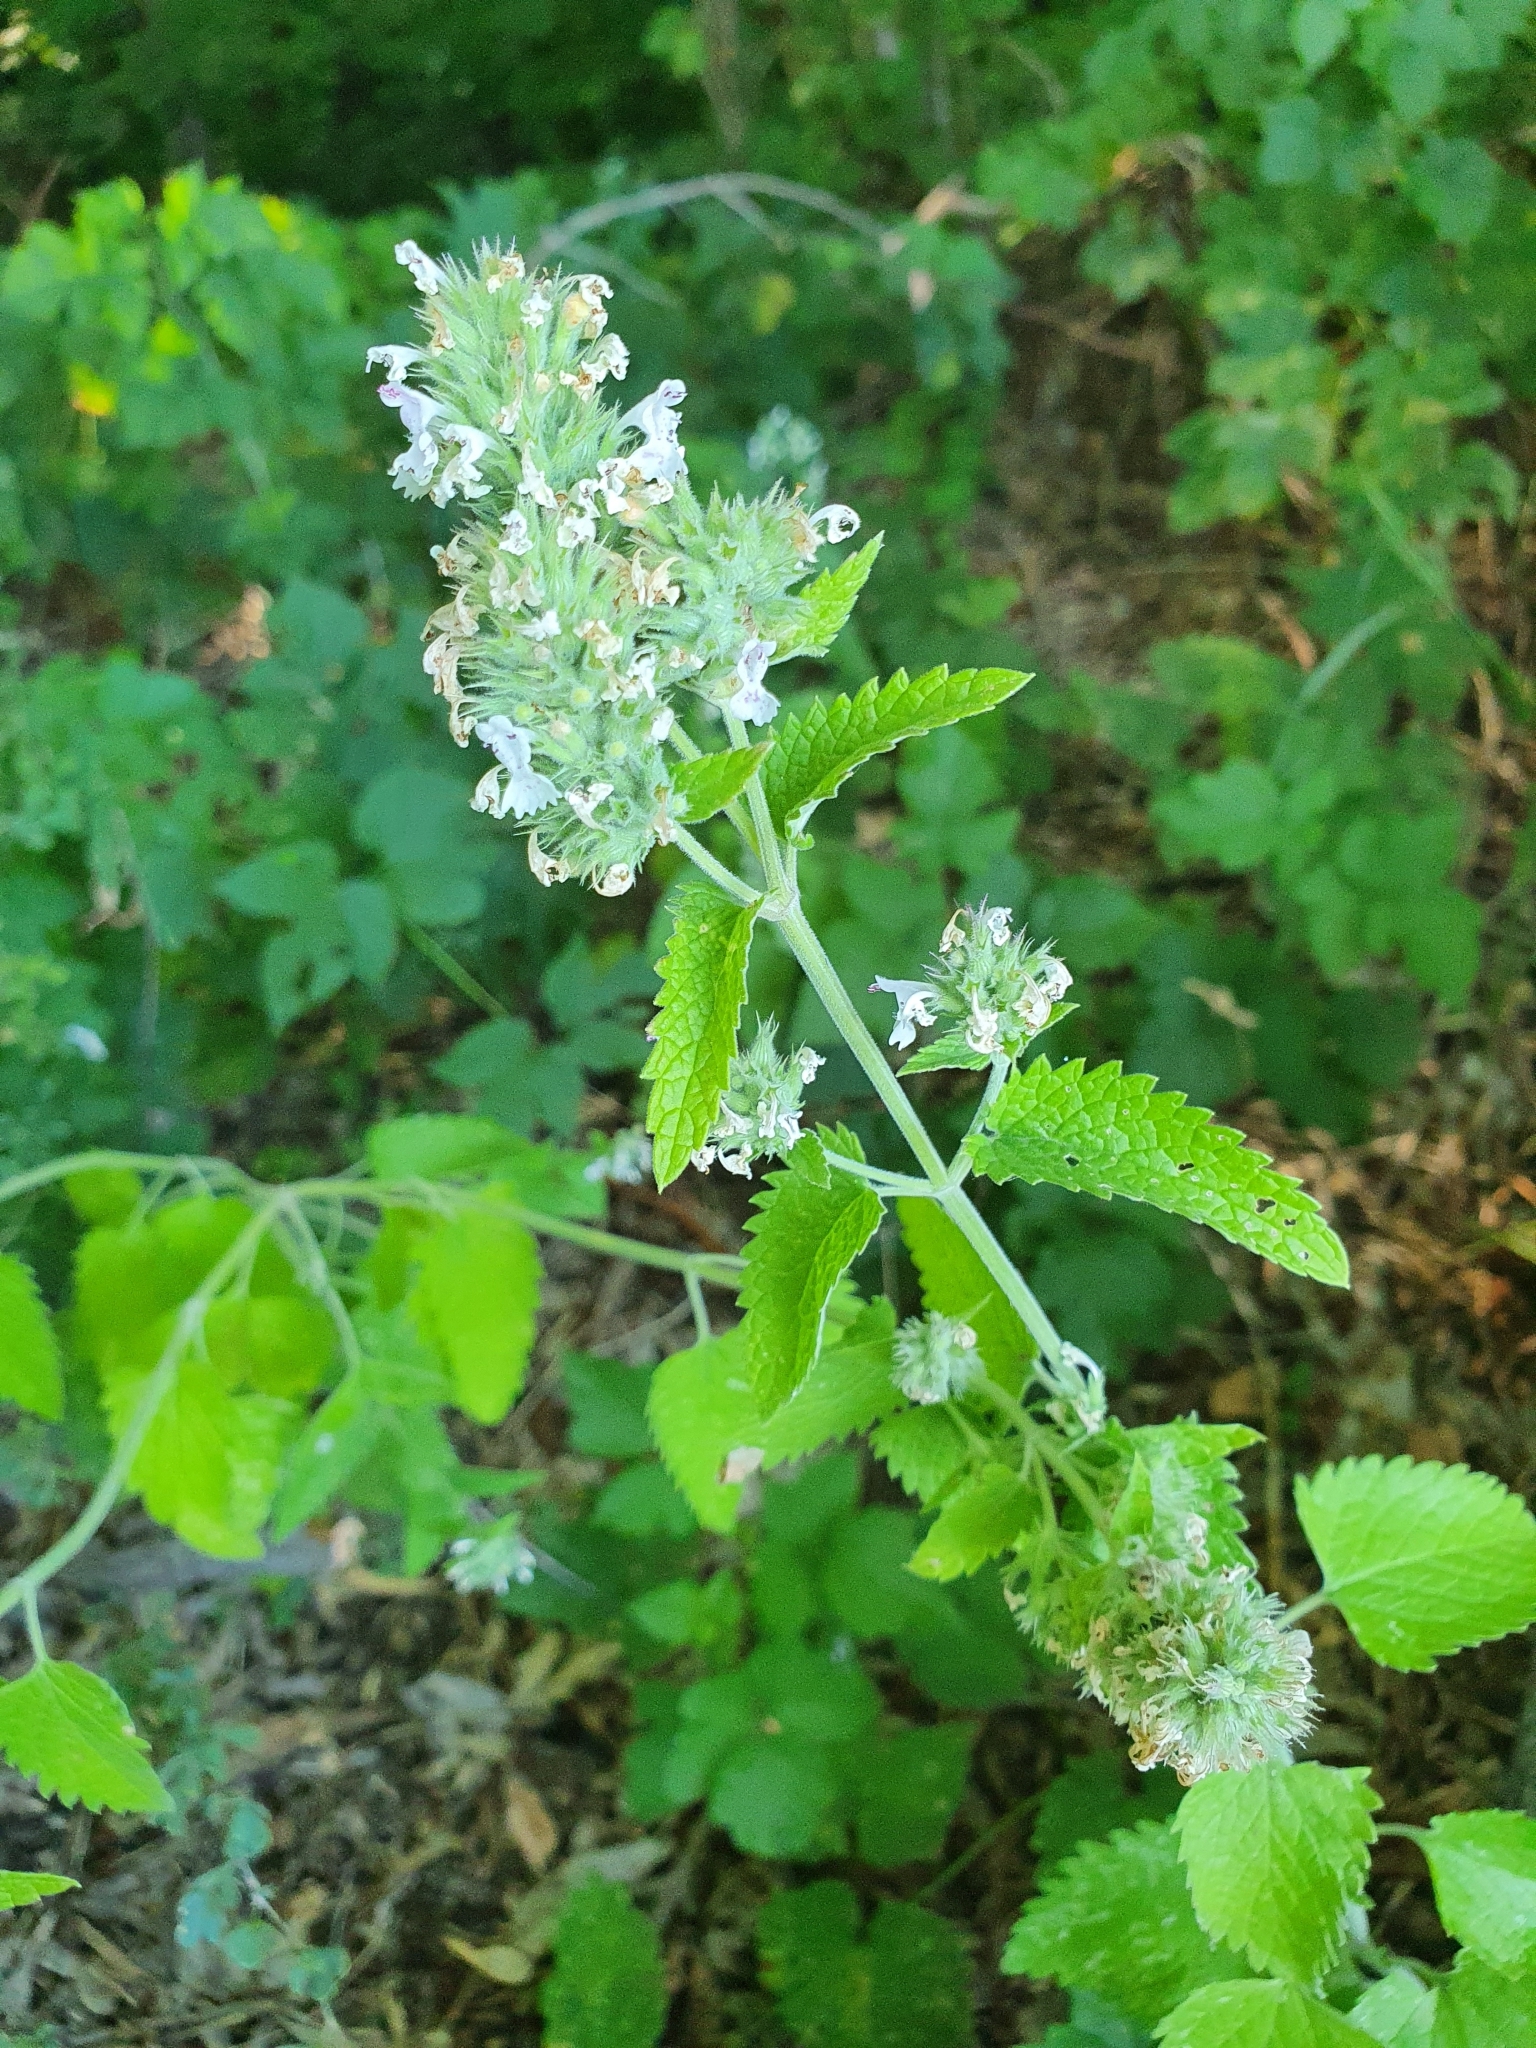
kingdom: Plantae
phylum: Tracheophyta
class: Magnoliopsida
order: Lamiales
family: Lamiaceae
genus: Nepeta
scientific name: Nepeta cataria
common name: Catnip
